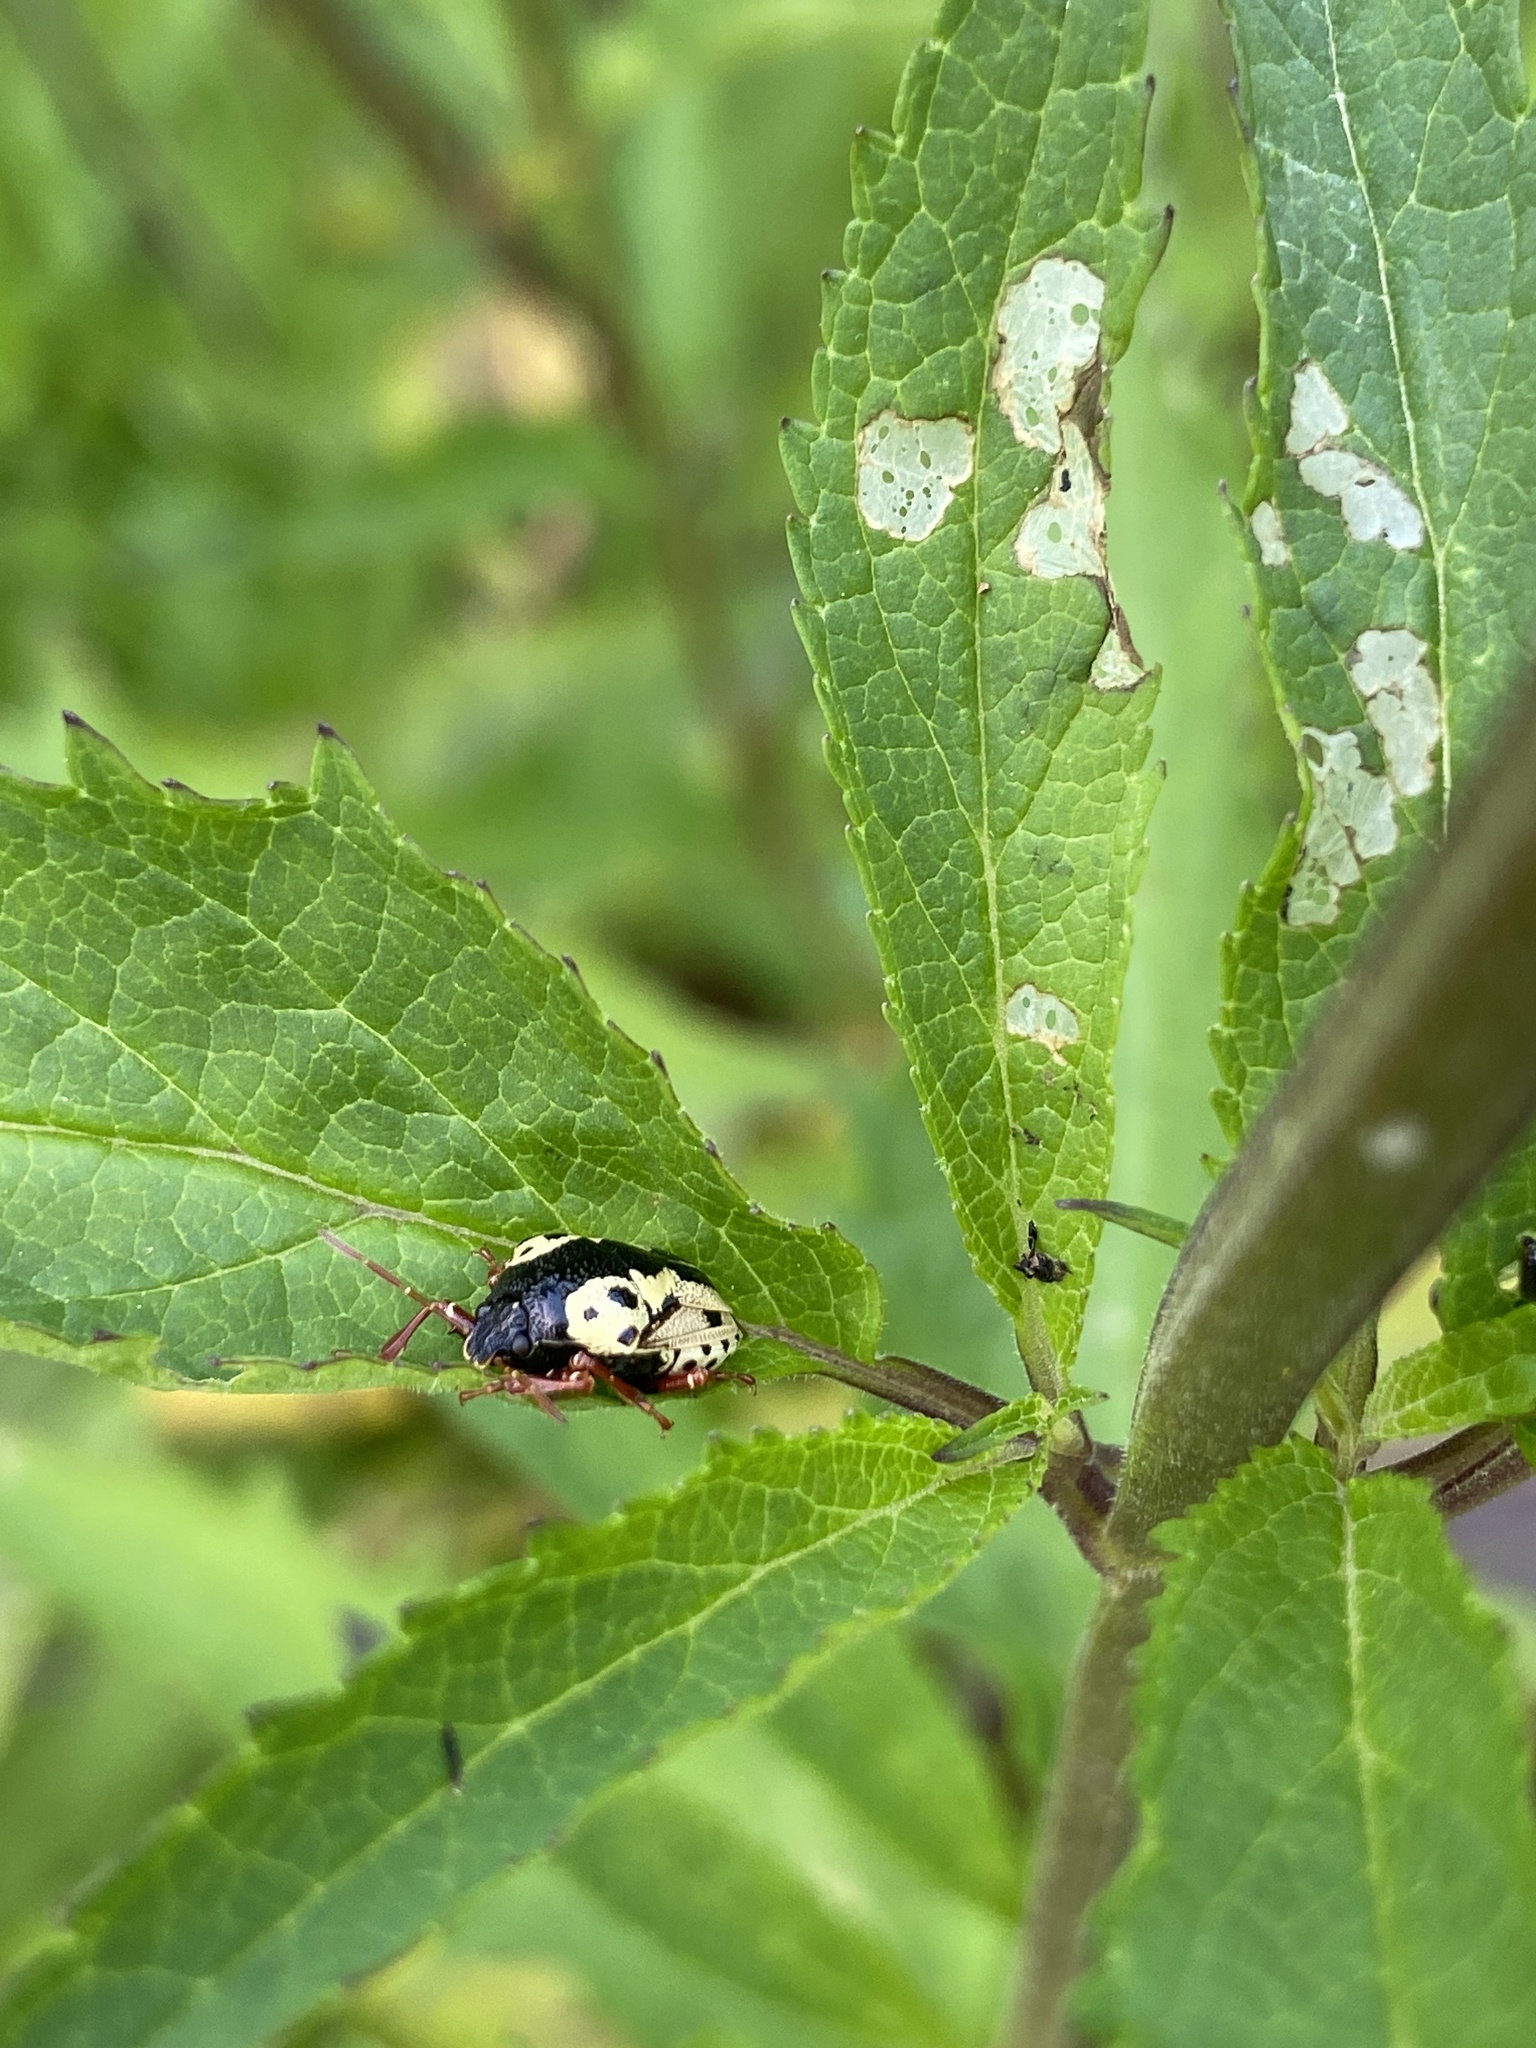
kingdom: Animalia
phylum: Arthropoda
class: Insecta
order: Hemiptera
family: Pentatomidae
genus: Stiretrus
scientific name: Stiretrus anchorago
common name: Anchor stink bug
